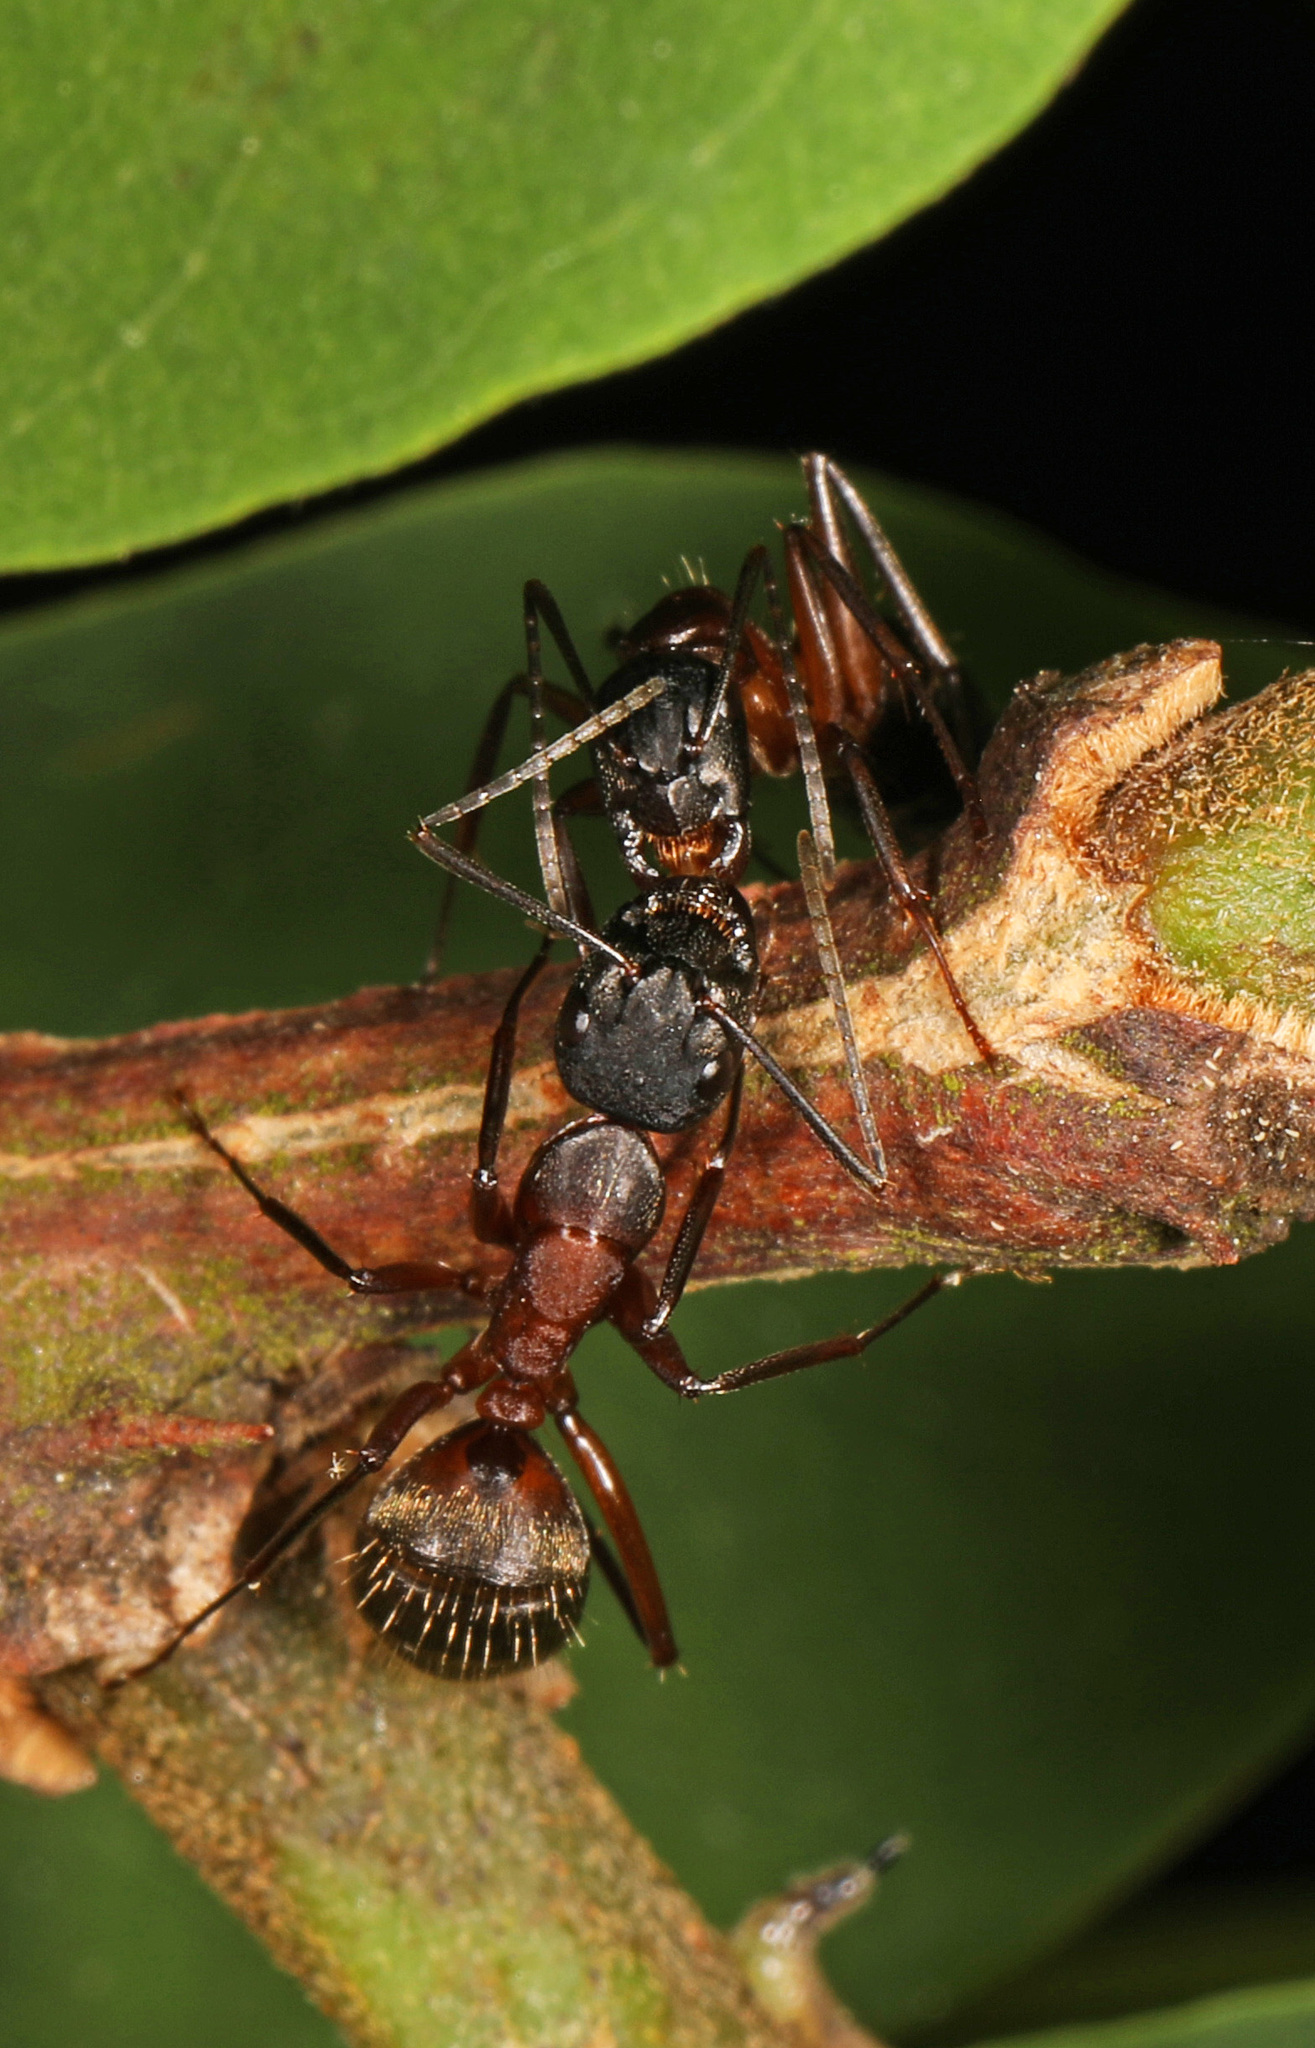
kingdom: Animalia
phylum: Arthropoda
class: Insecta
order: Hymenoptera
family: Formicidae
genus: Camponotus
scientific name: Camponotus chromaiodes
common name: Red carpenter ant
